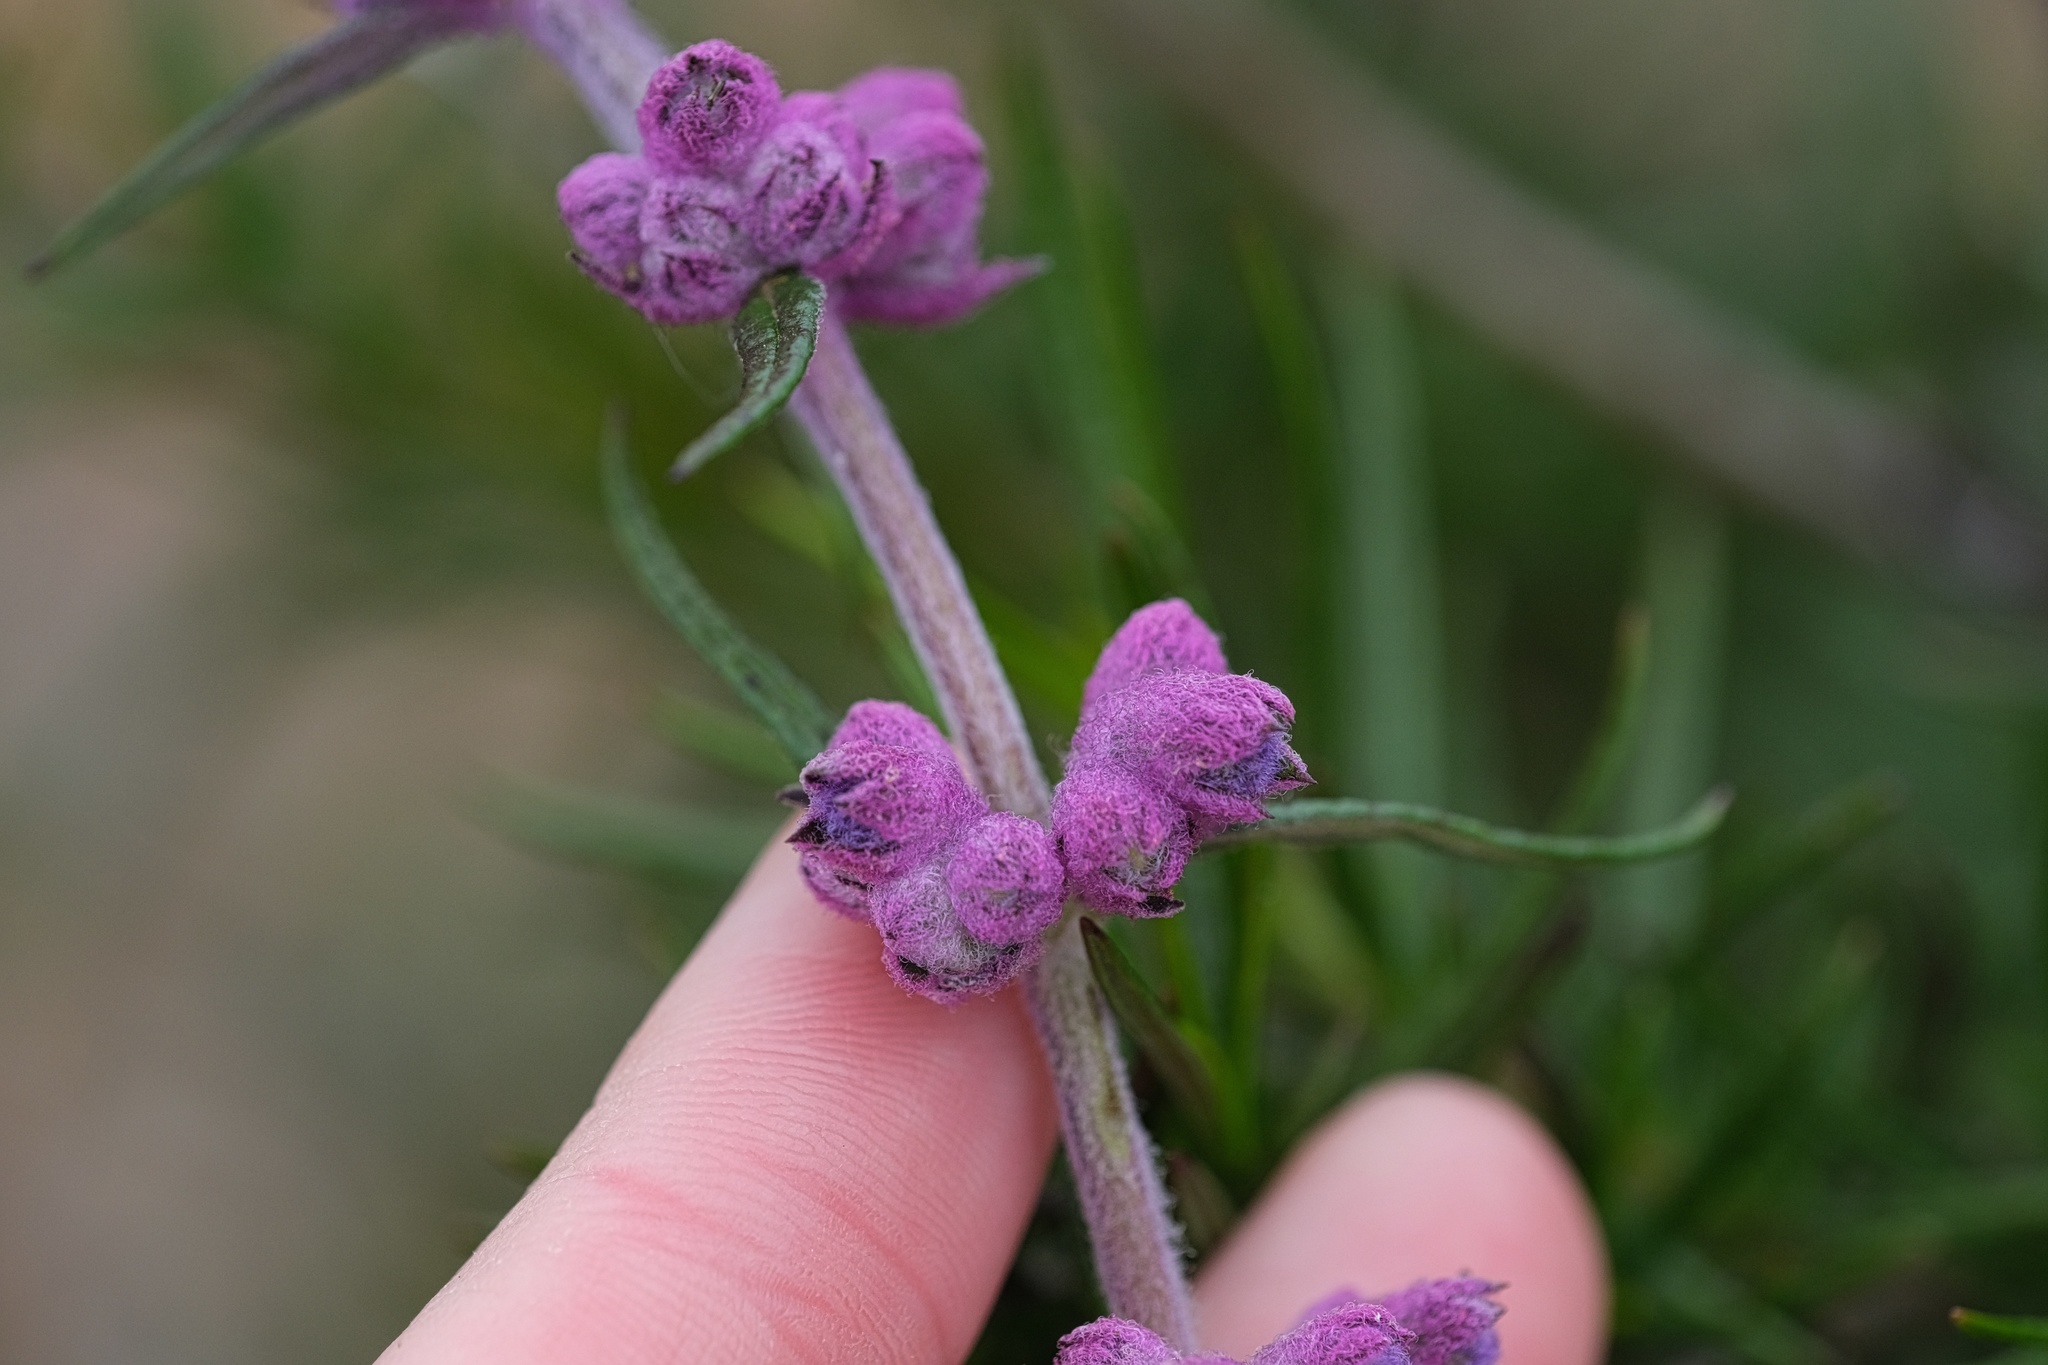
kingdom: Plantae
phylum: Tracheophyta
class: Magnoliopsida
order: Lamiales
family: Lamiaceae
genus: Trichostema
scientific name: Trichostema lanatum
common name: Woolly bluecurls
